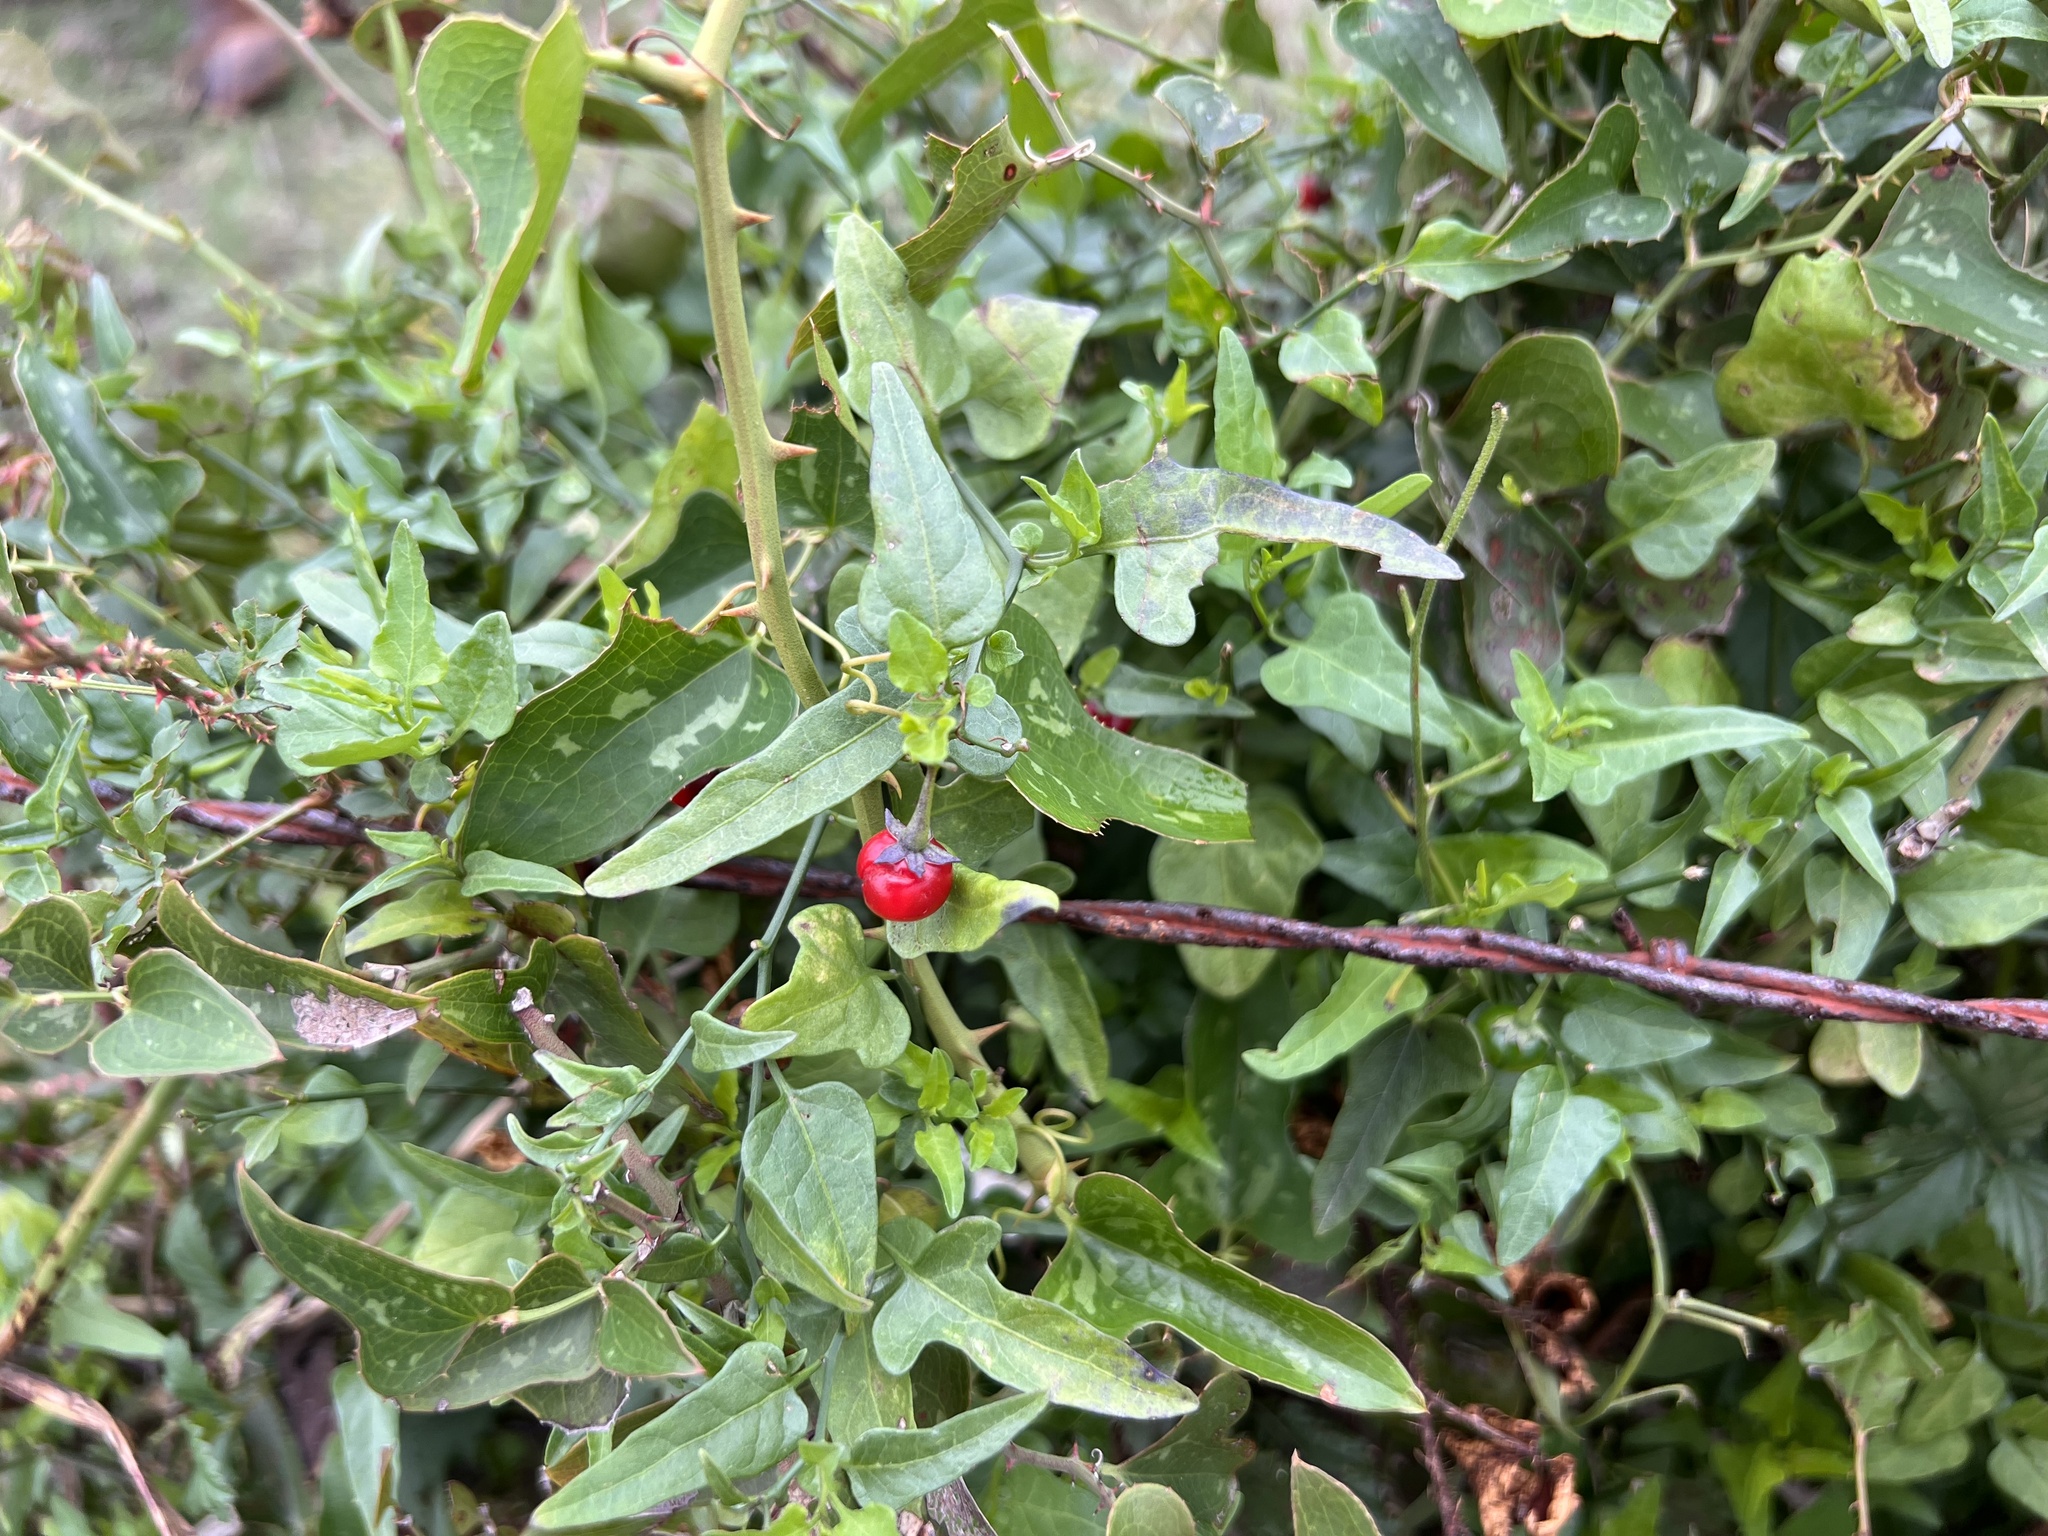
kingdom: Plantae
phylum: Tracheophyta
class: Magnoliopsida
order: Solanales
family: Solanaceae
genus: Solanum
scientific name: Solanum triquetrum
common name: Texas nightshade
